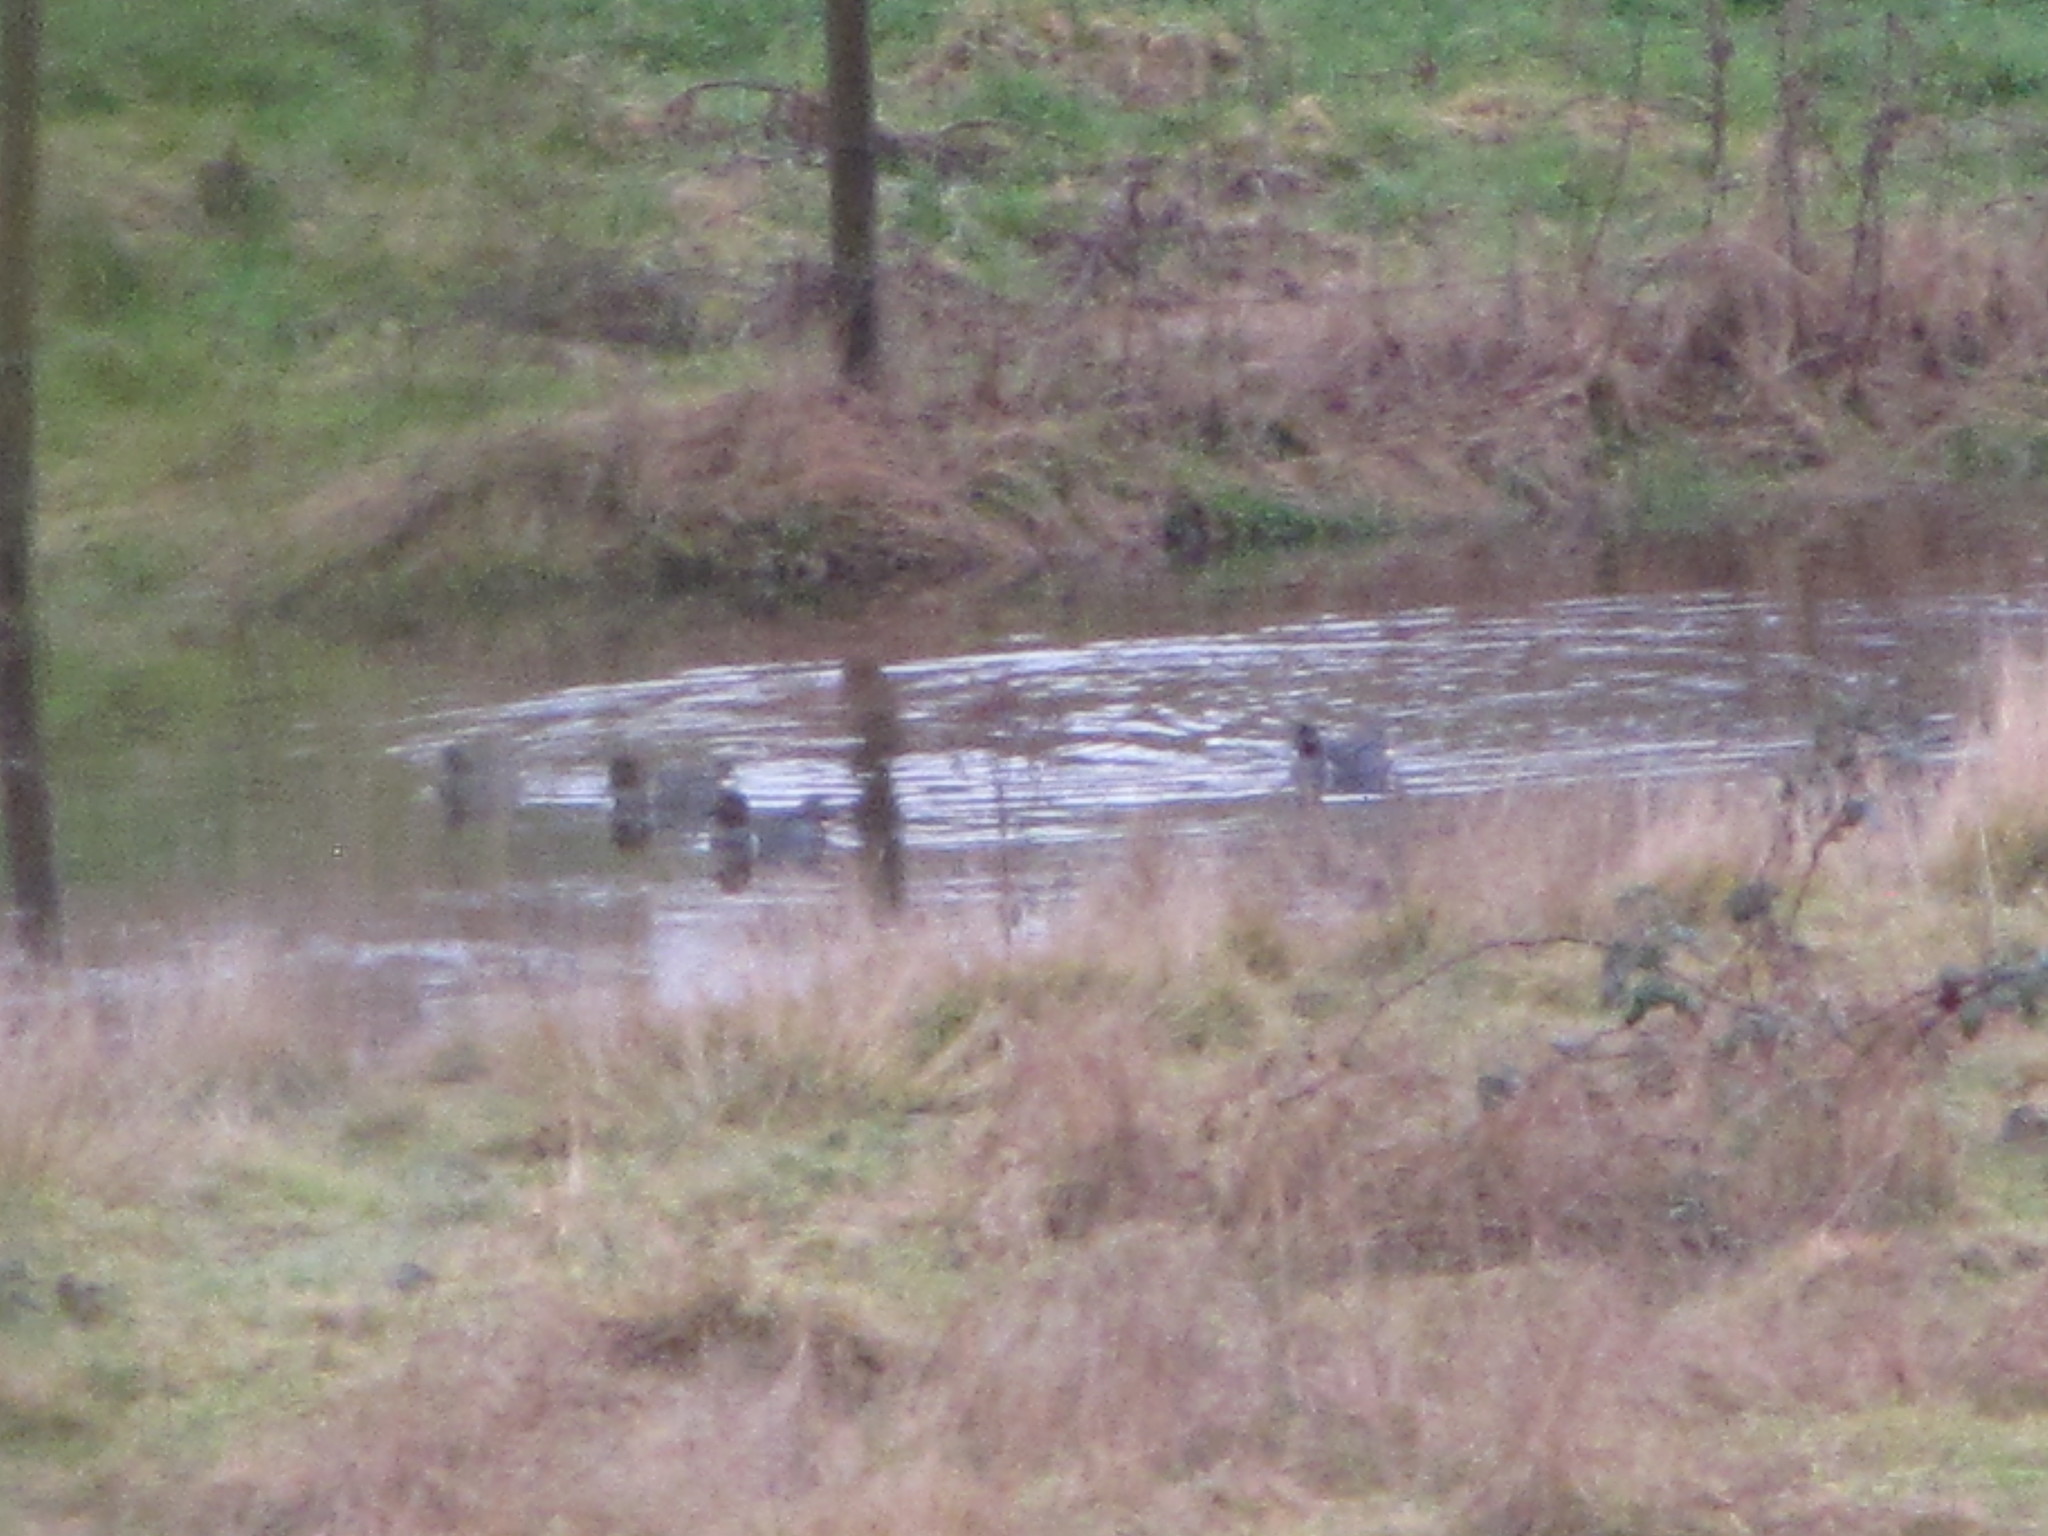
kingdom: Animalia
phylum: Chordata
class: Aves
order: Anseriformes
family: Anatidae
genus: Anas
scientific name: Anas crecca
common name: Eurasian teal
